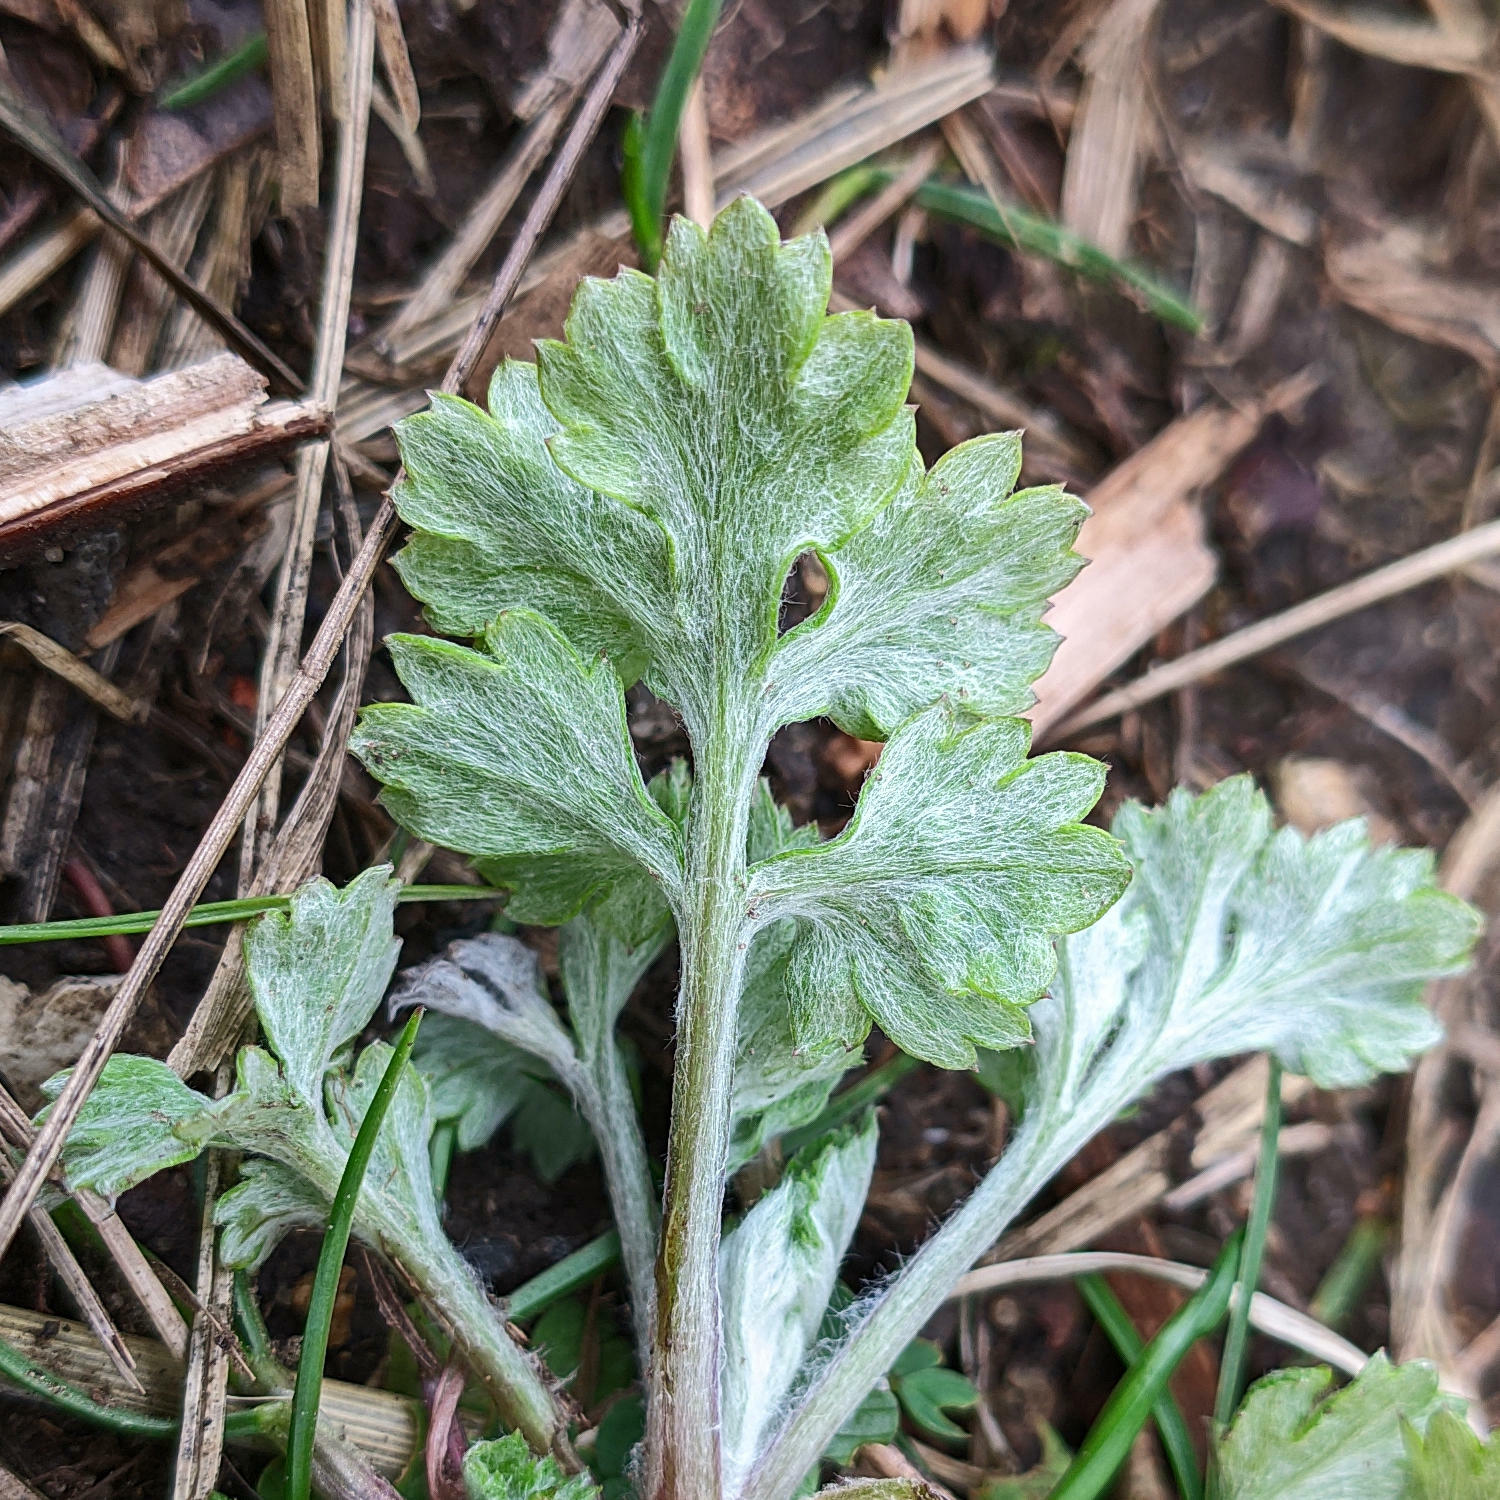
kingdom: Plantae
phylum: Tracheophyta
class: Magnoliopsida
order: Asterales
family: Asteraceae
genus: Artemisia
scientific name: Artemisia vulgaris
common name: Mugwort
